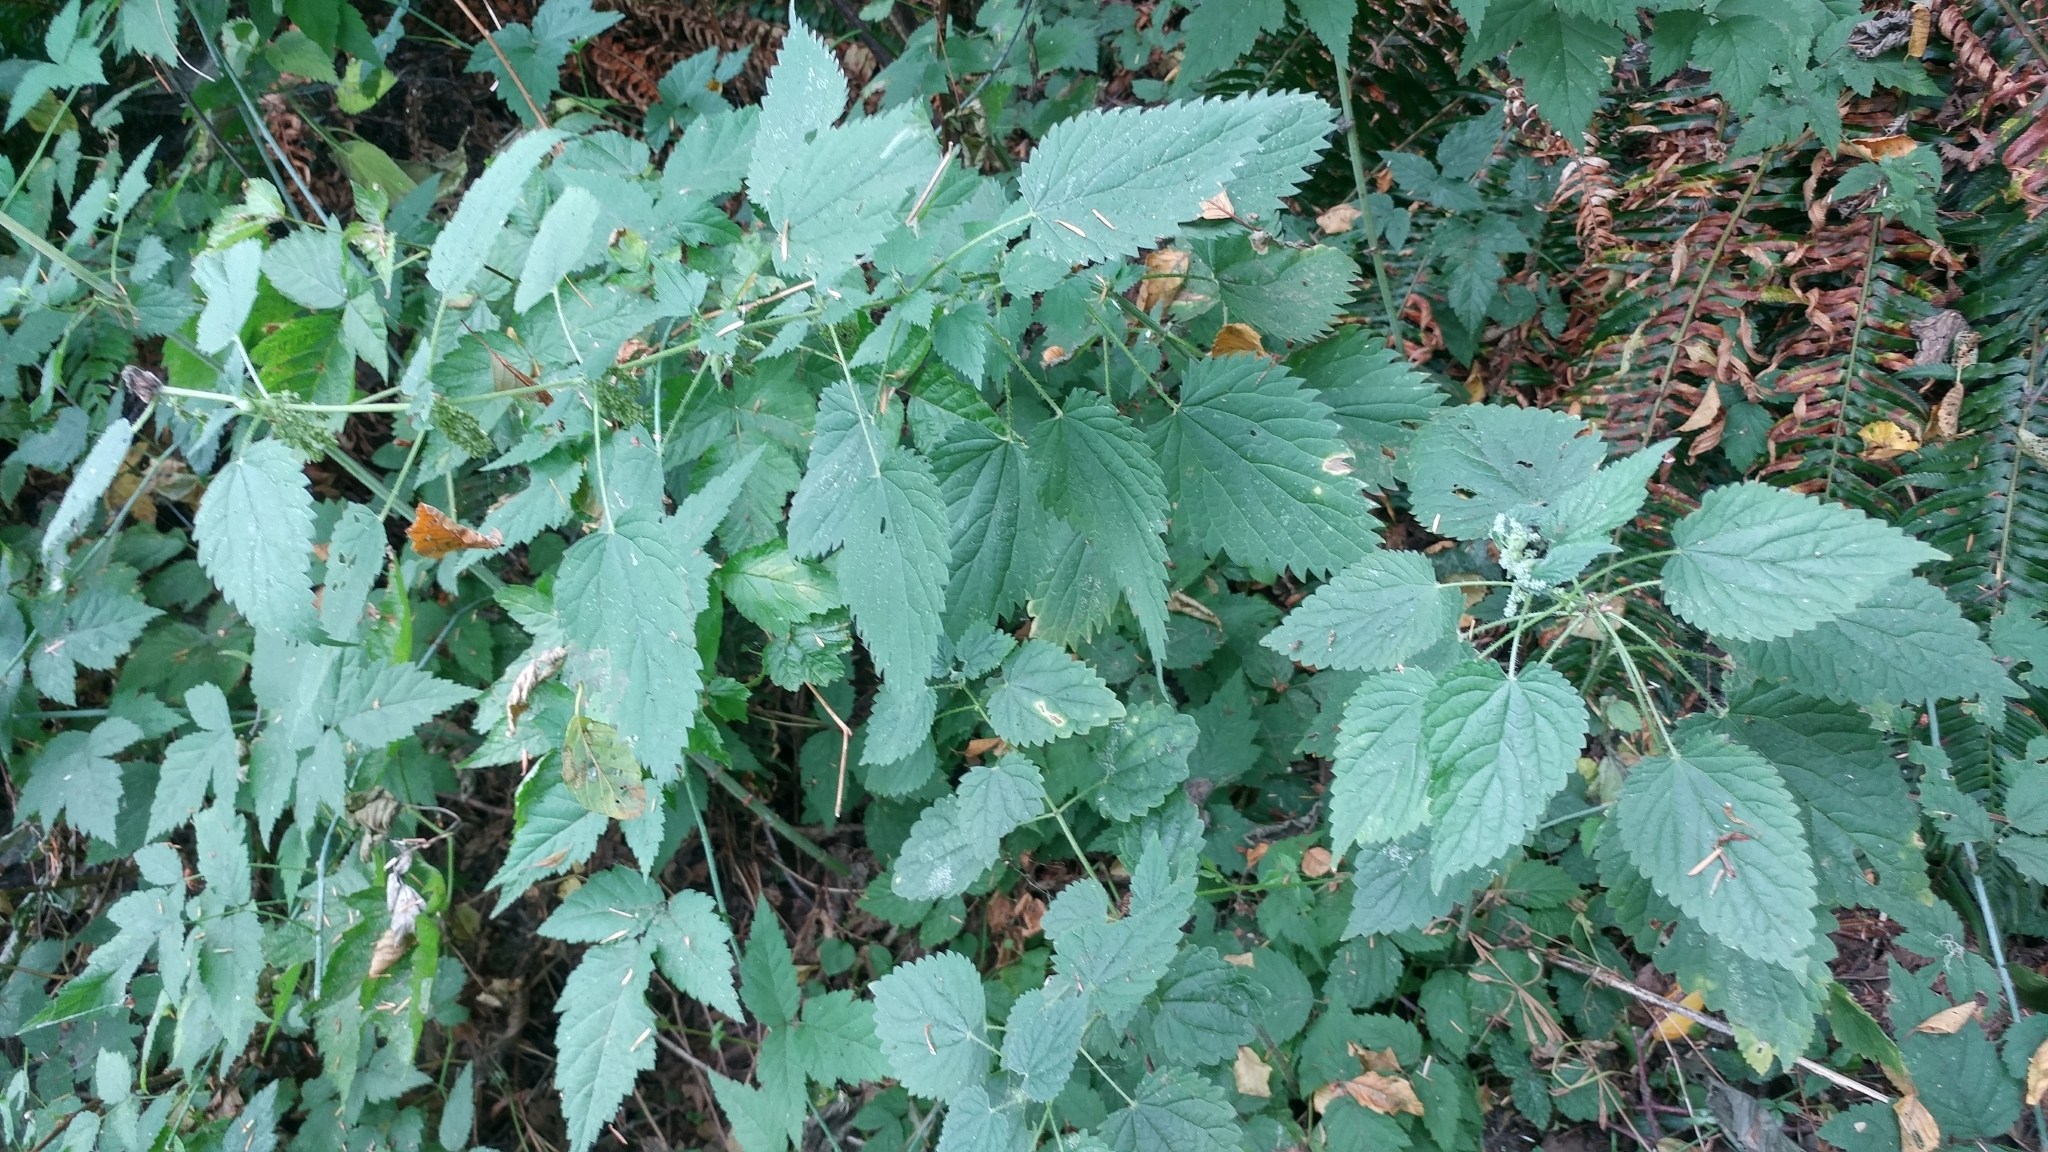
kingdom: Plantae
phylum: Tracheophyta
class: Magnoliopsida
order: Rosales
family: Urticaceae
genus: Urtica
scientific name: Urtica dioica
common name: Common nettle
